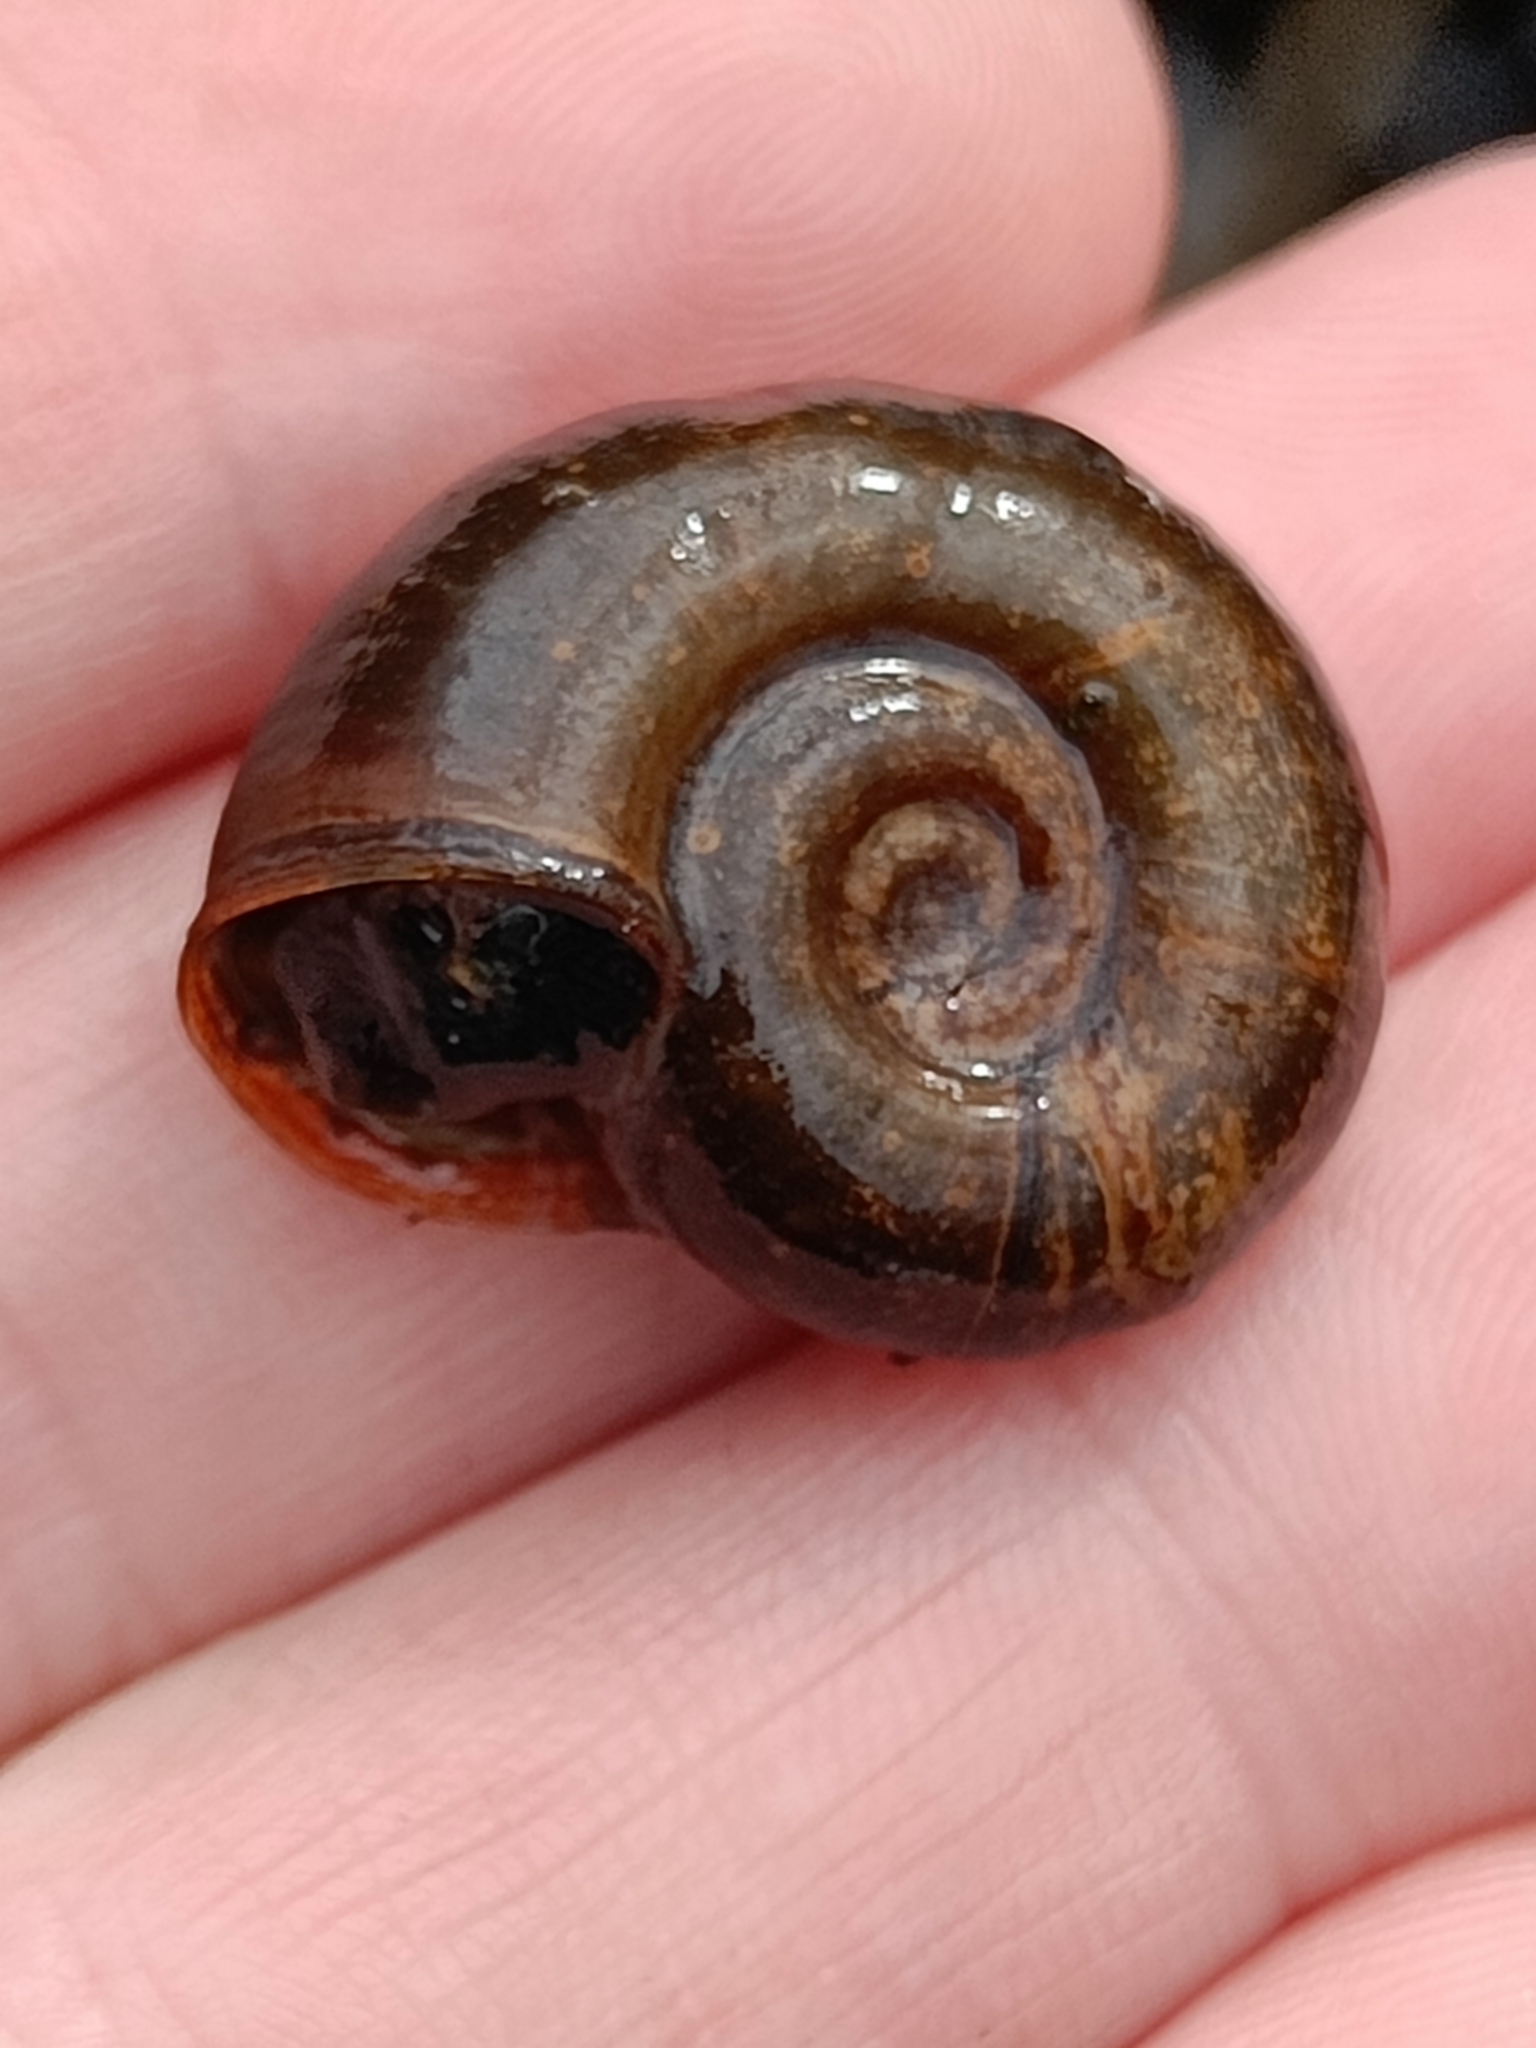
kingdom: Animalia
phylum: Mollusca
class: Gastropoda
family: Planorbidae
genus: Planorbarius
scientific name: Planorbarius corneus
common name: Great ramshorn
